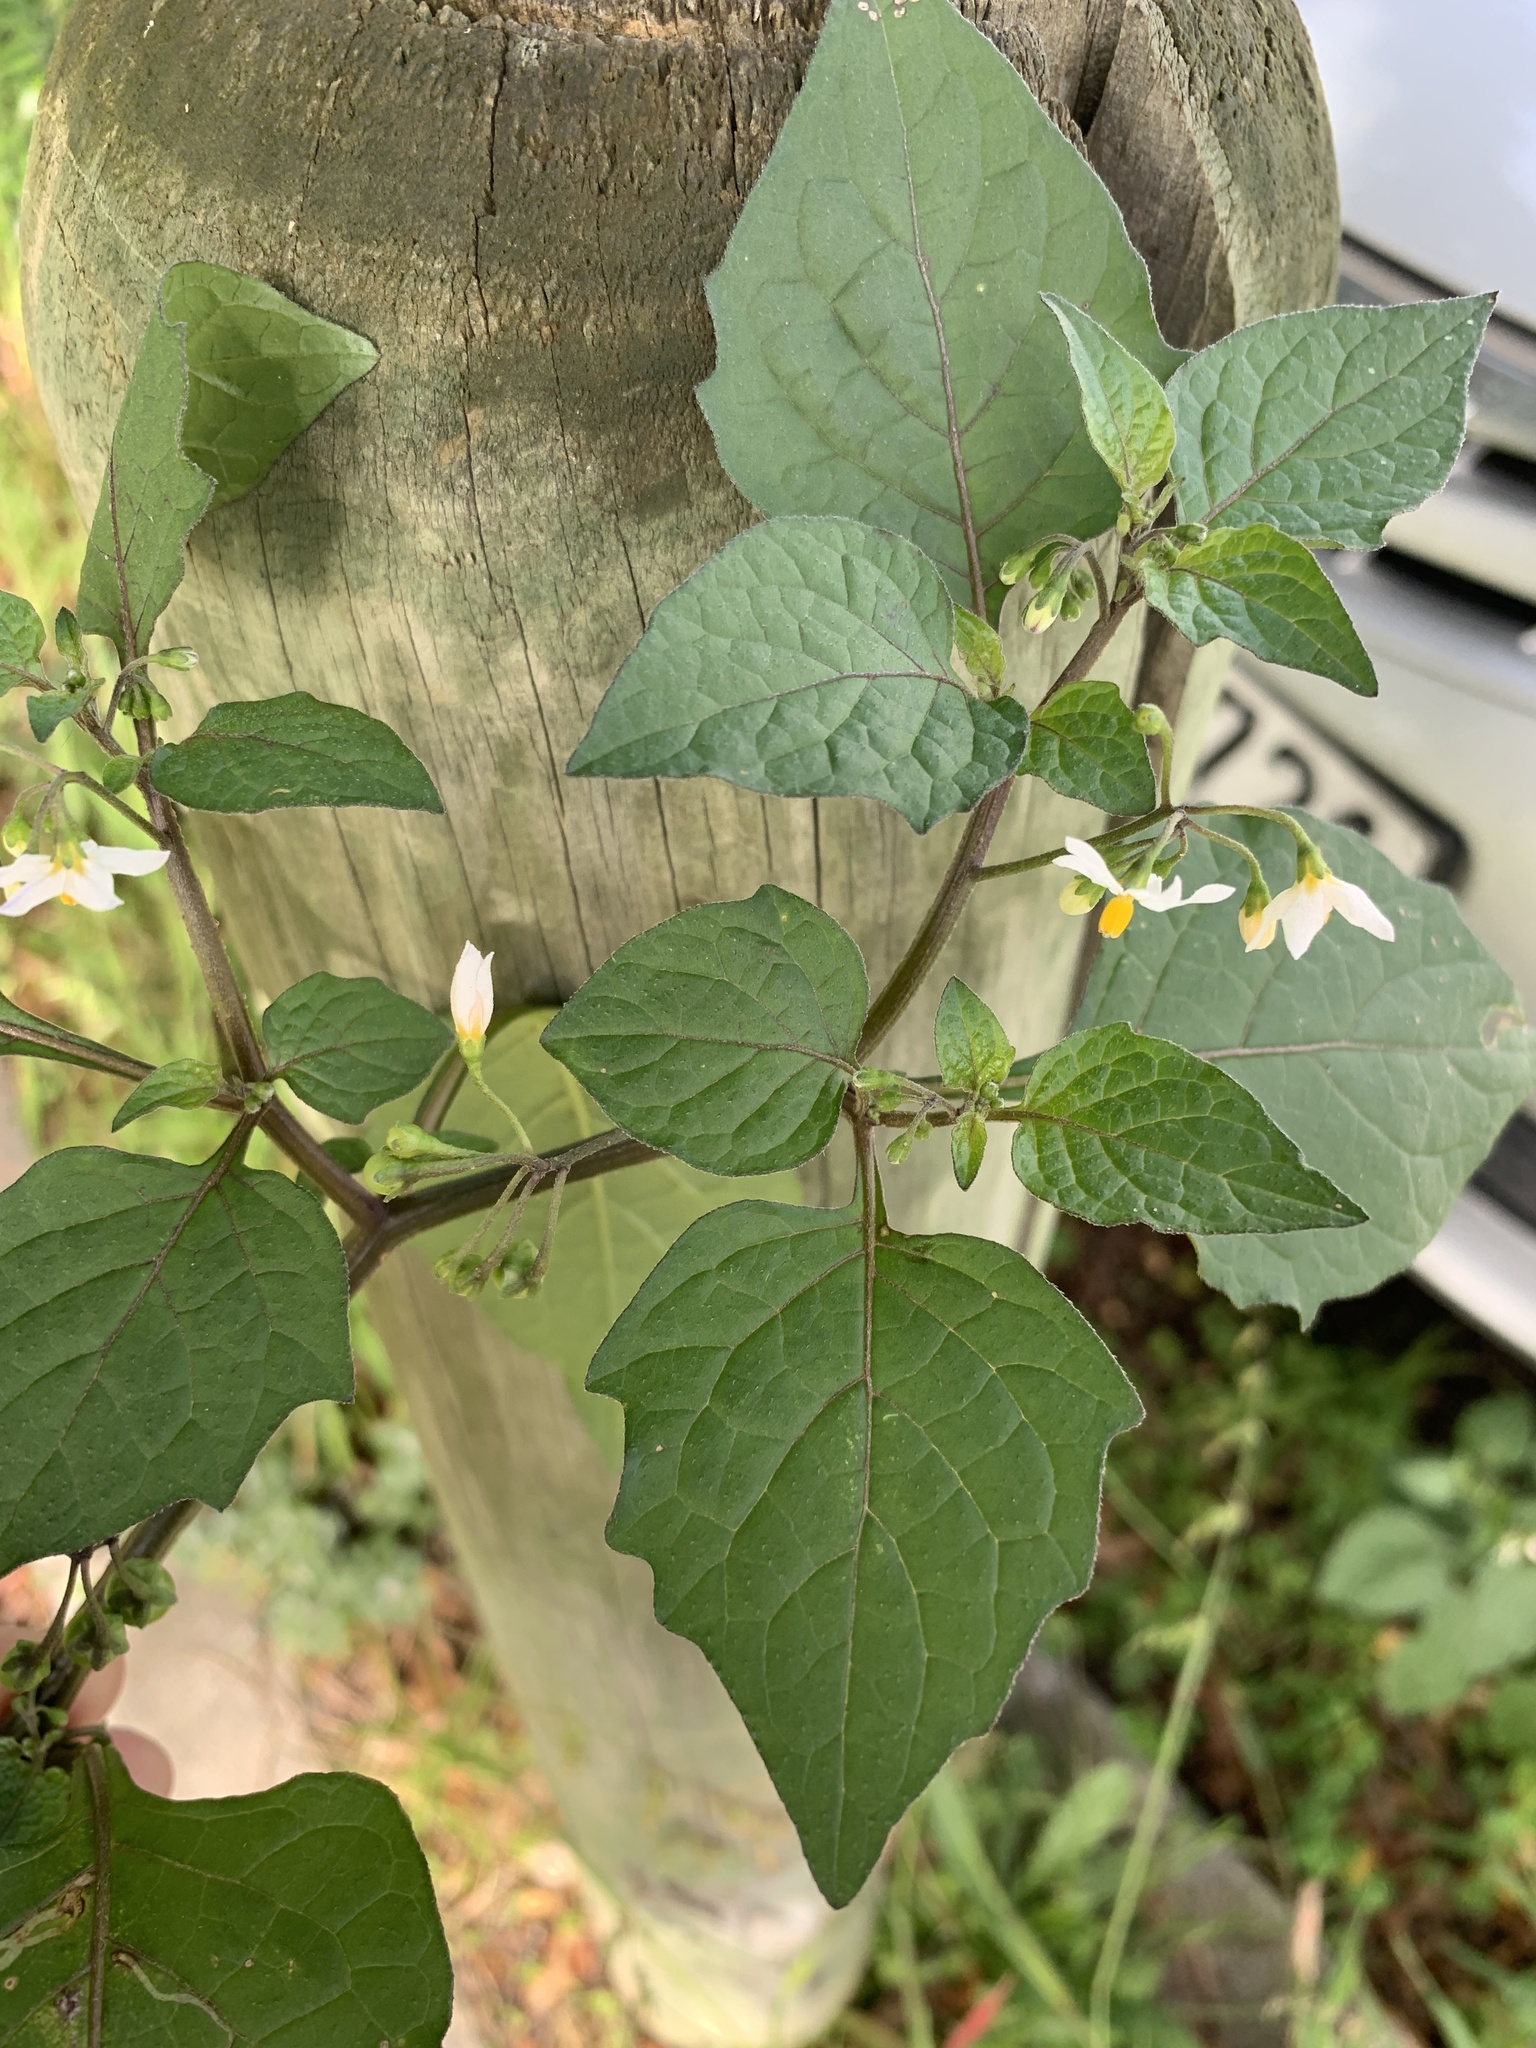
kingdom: Plantae
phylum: Tracheophyta
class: Magnoliopsida
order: Solanales
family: Solanaceae
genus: Solanum
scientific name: Solanum nigrum
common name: Black nightshade
